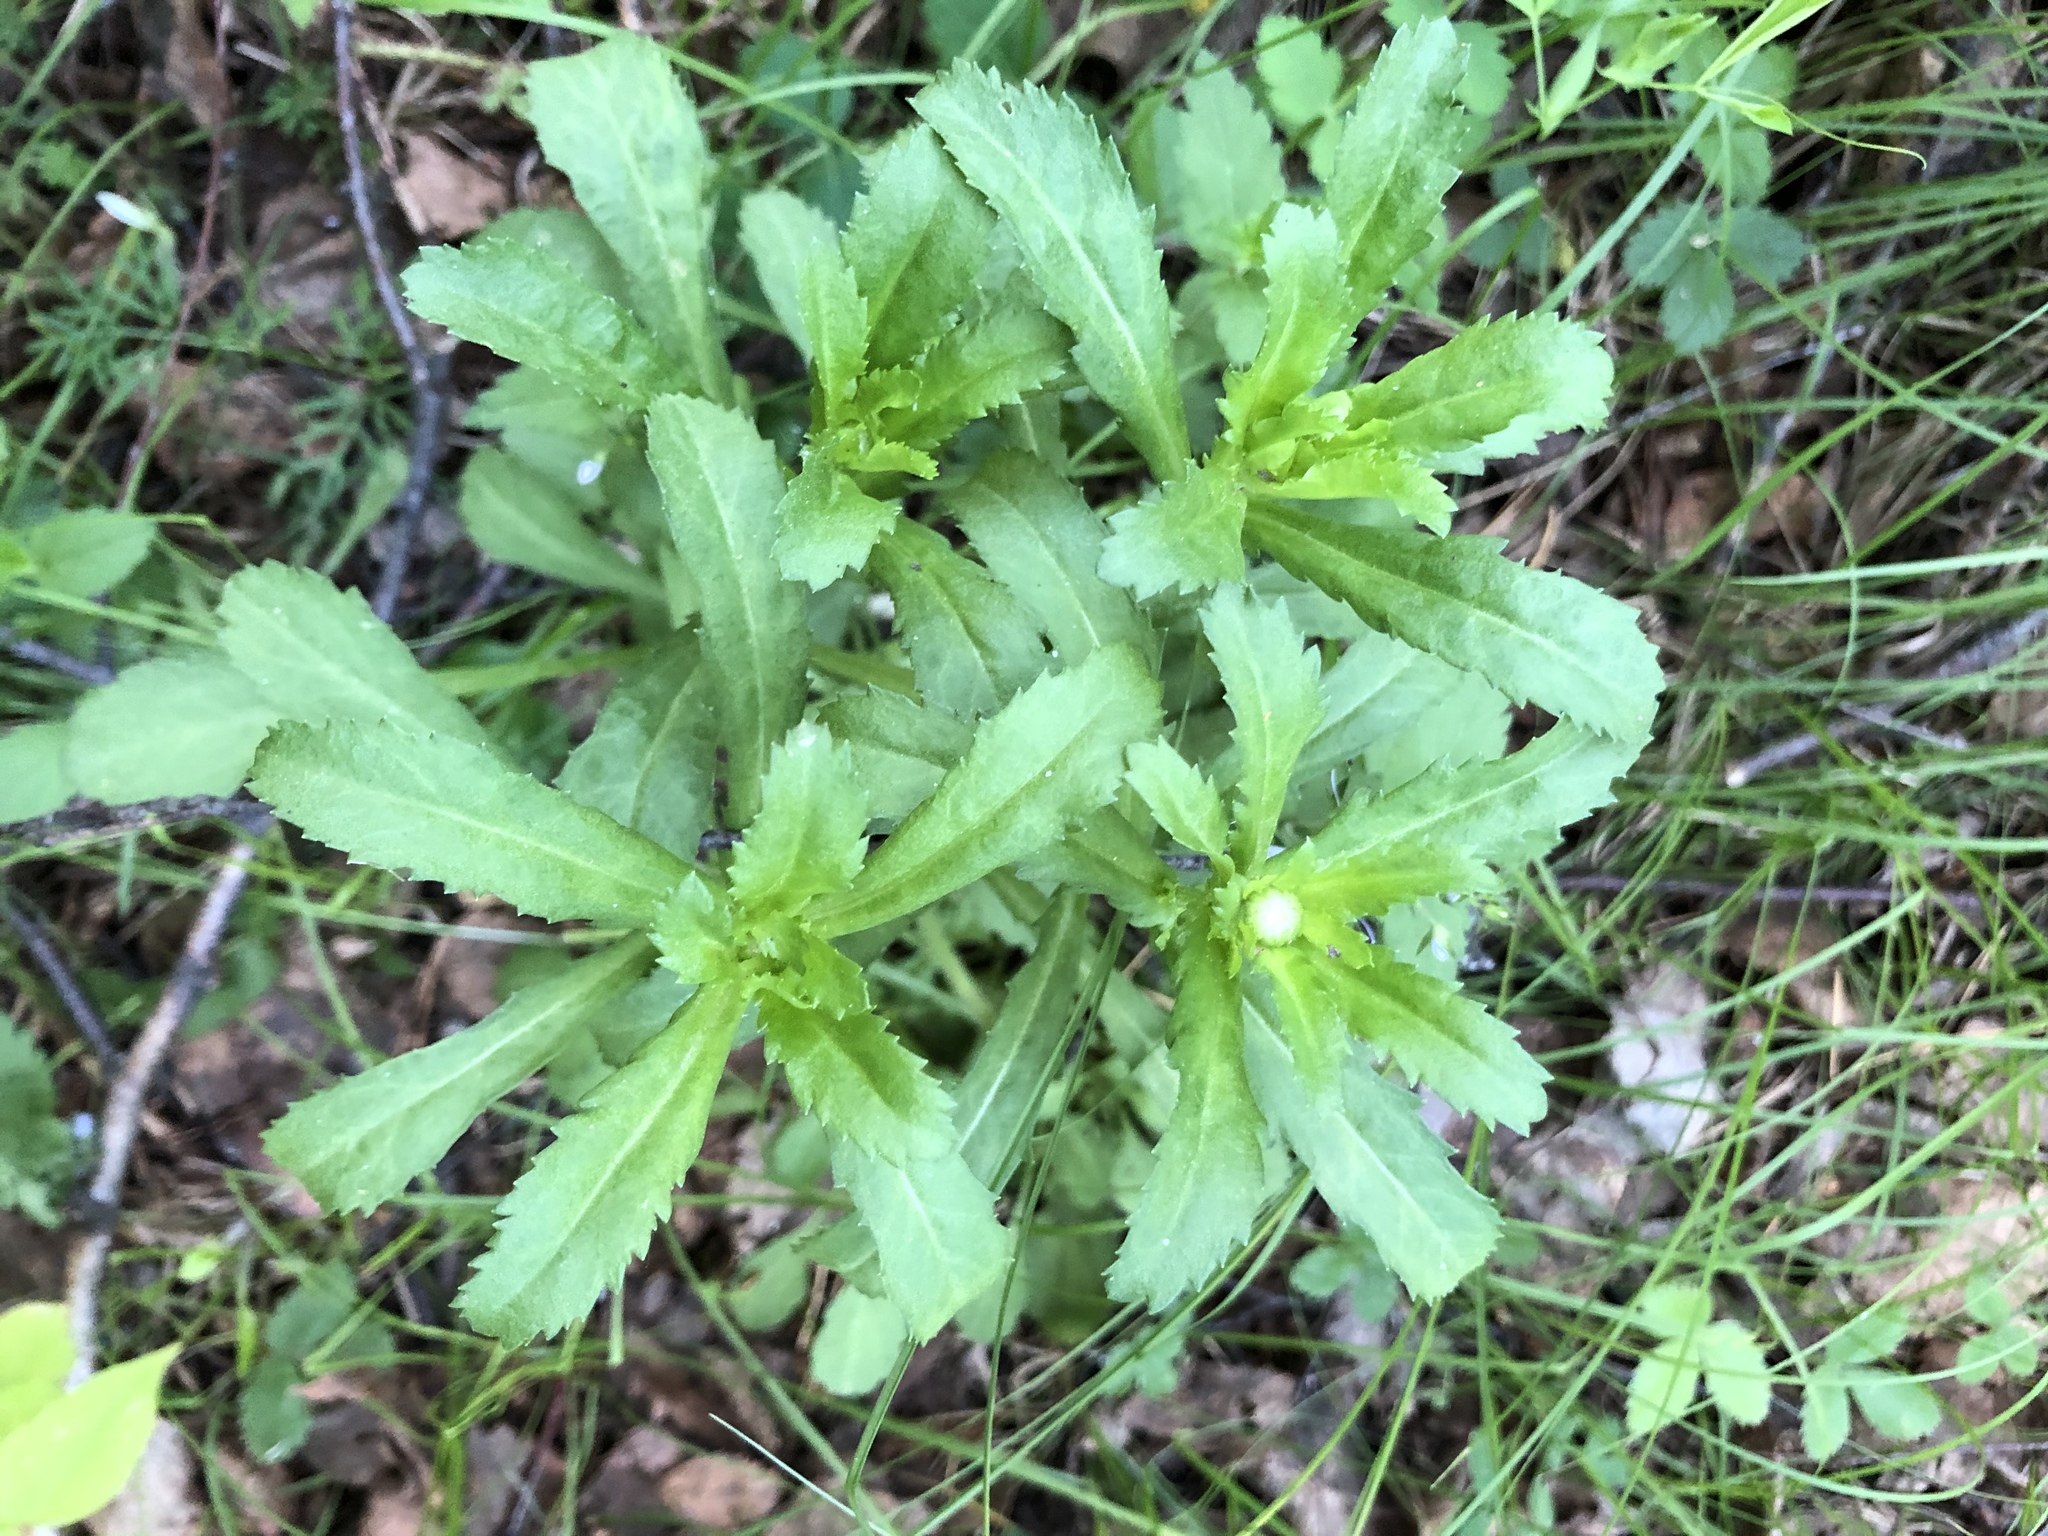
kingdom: Plantae
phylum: Tracheophyta
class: Magnoliopsida
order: Asterales
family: Asteraceae
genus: Leucanthemum
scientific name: Leucanthemum ircutianum
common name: Daisy
